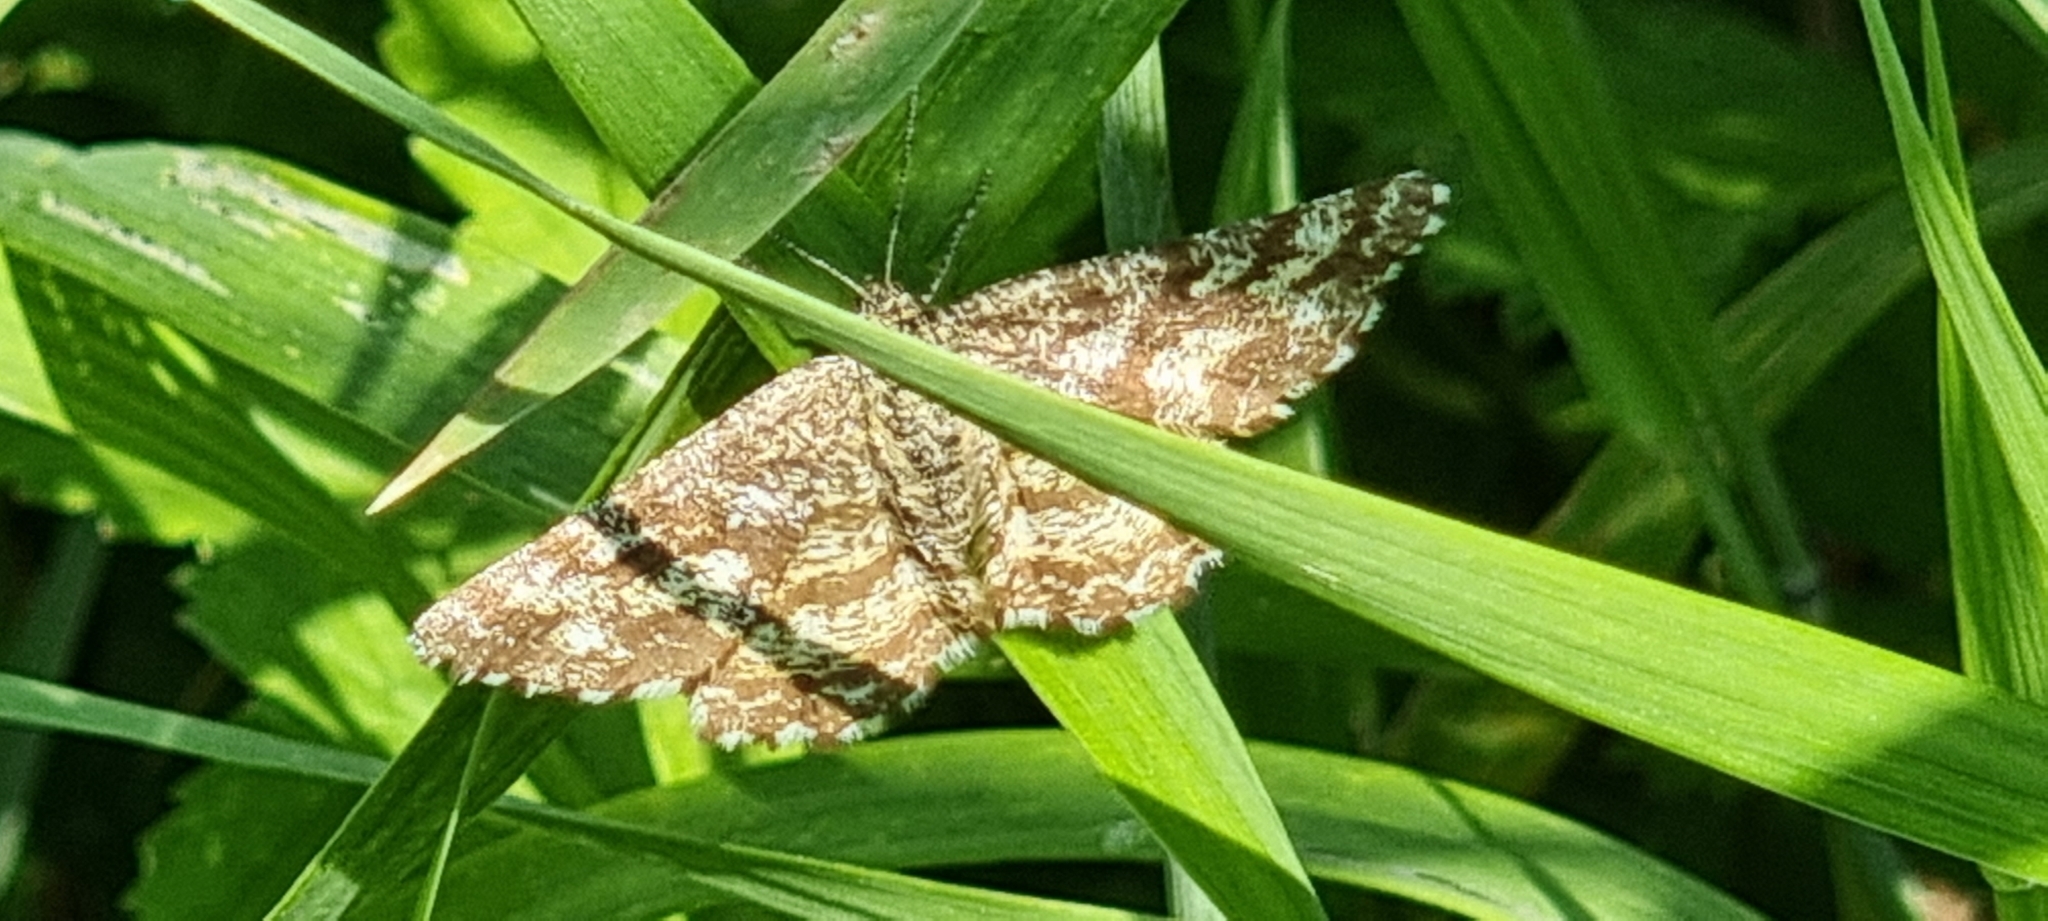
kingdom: Animalia
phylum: Arthropoda
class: Insecta
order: Lepidoptera
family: Geometridae
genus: Ematurga
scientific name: Ematurga atomaria
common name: Common heath
